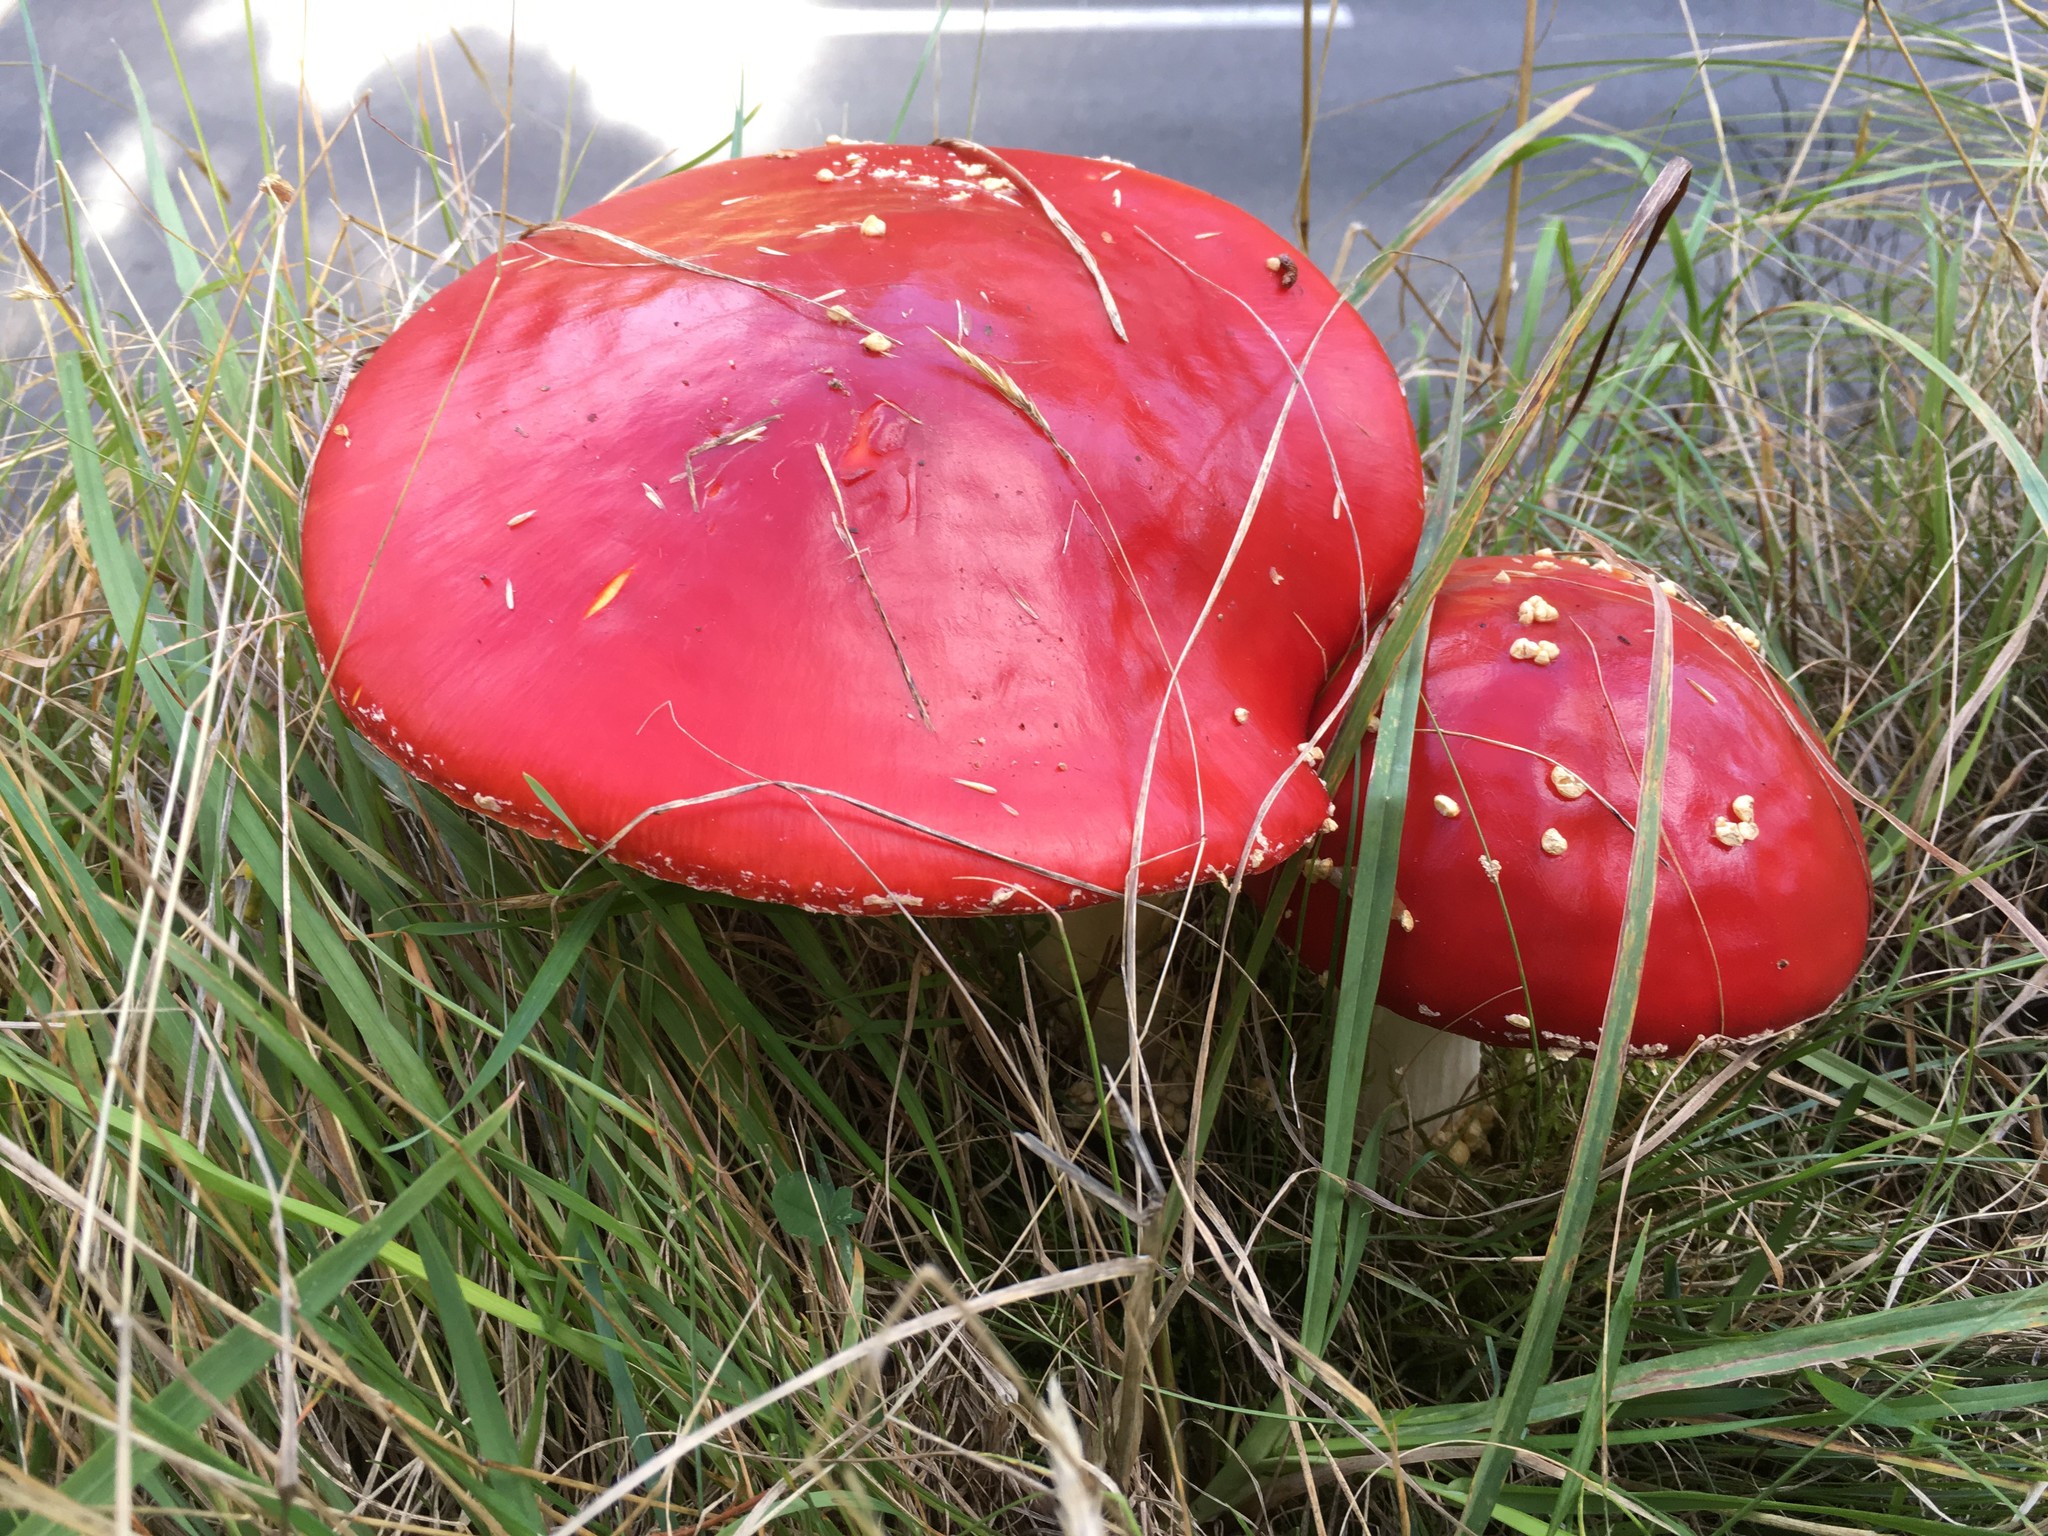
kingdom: Fungi
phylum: Basidiomycota
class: Agaricomycetes
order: Agaricales
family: Amanitaceae
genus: Amanita
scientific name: Amanita muscaria
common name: Fly agaric
